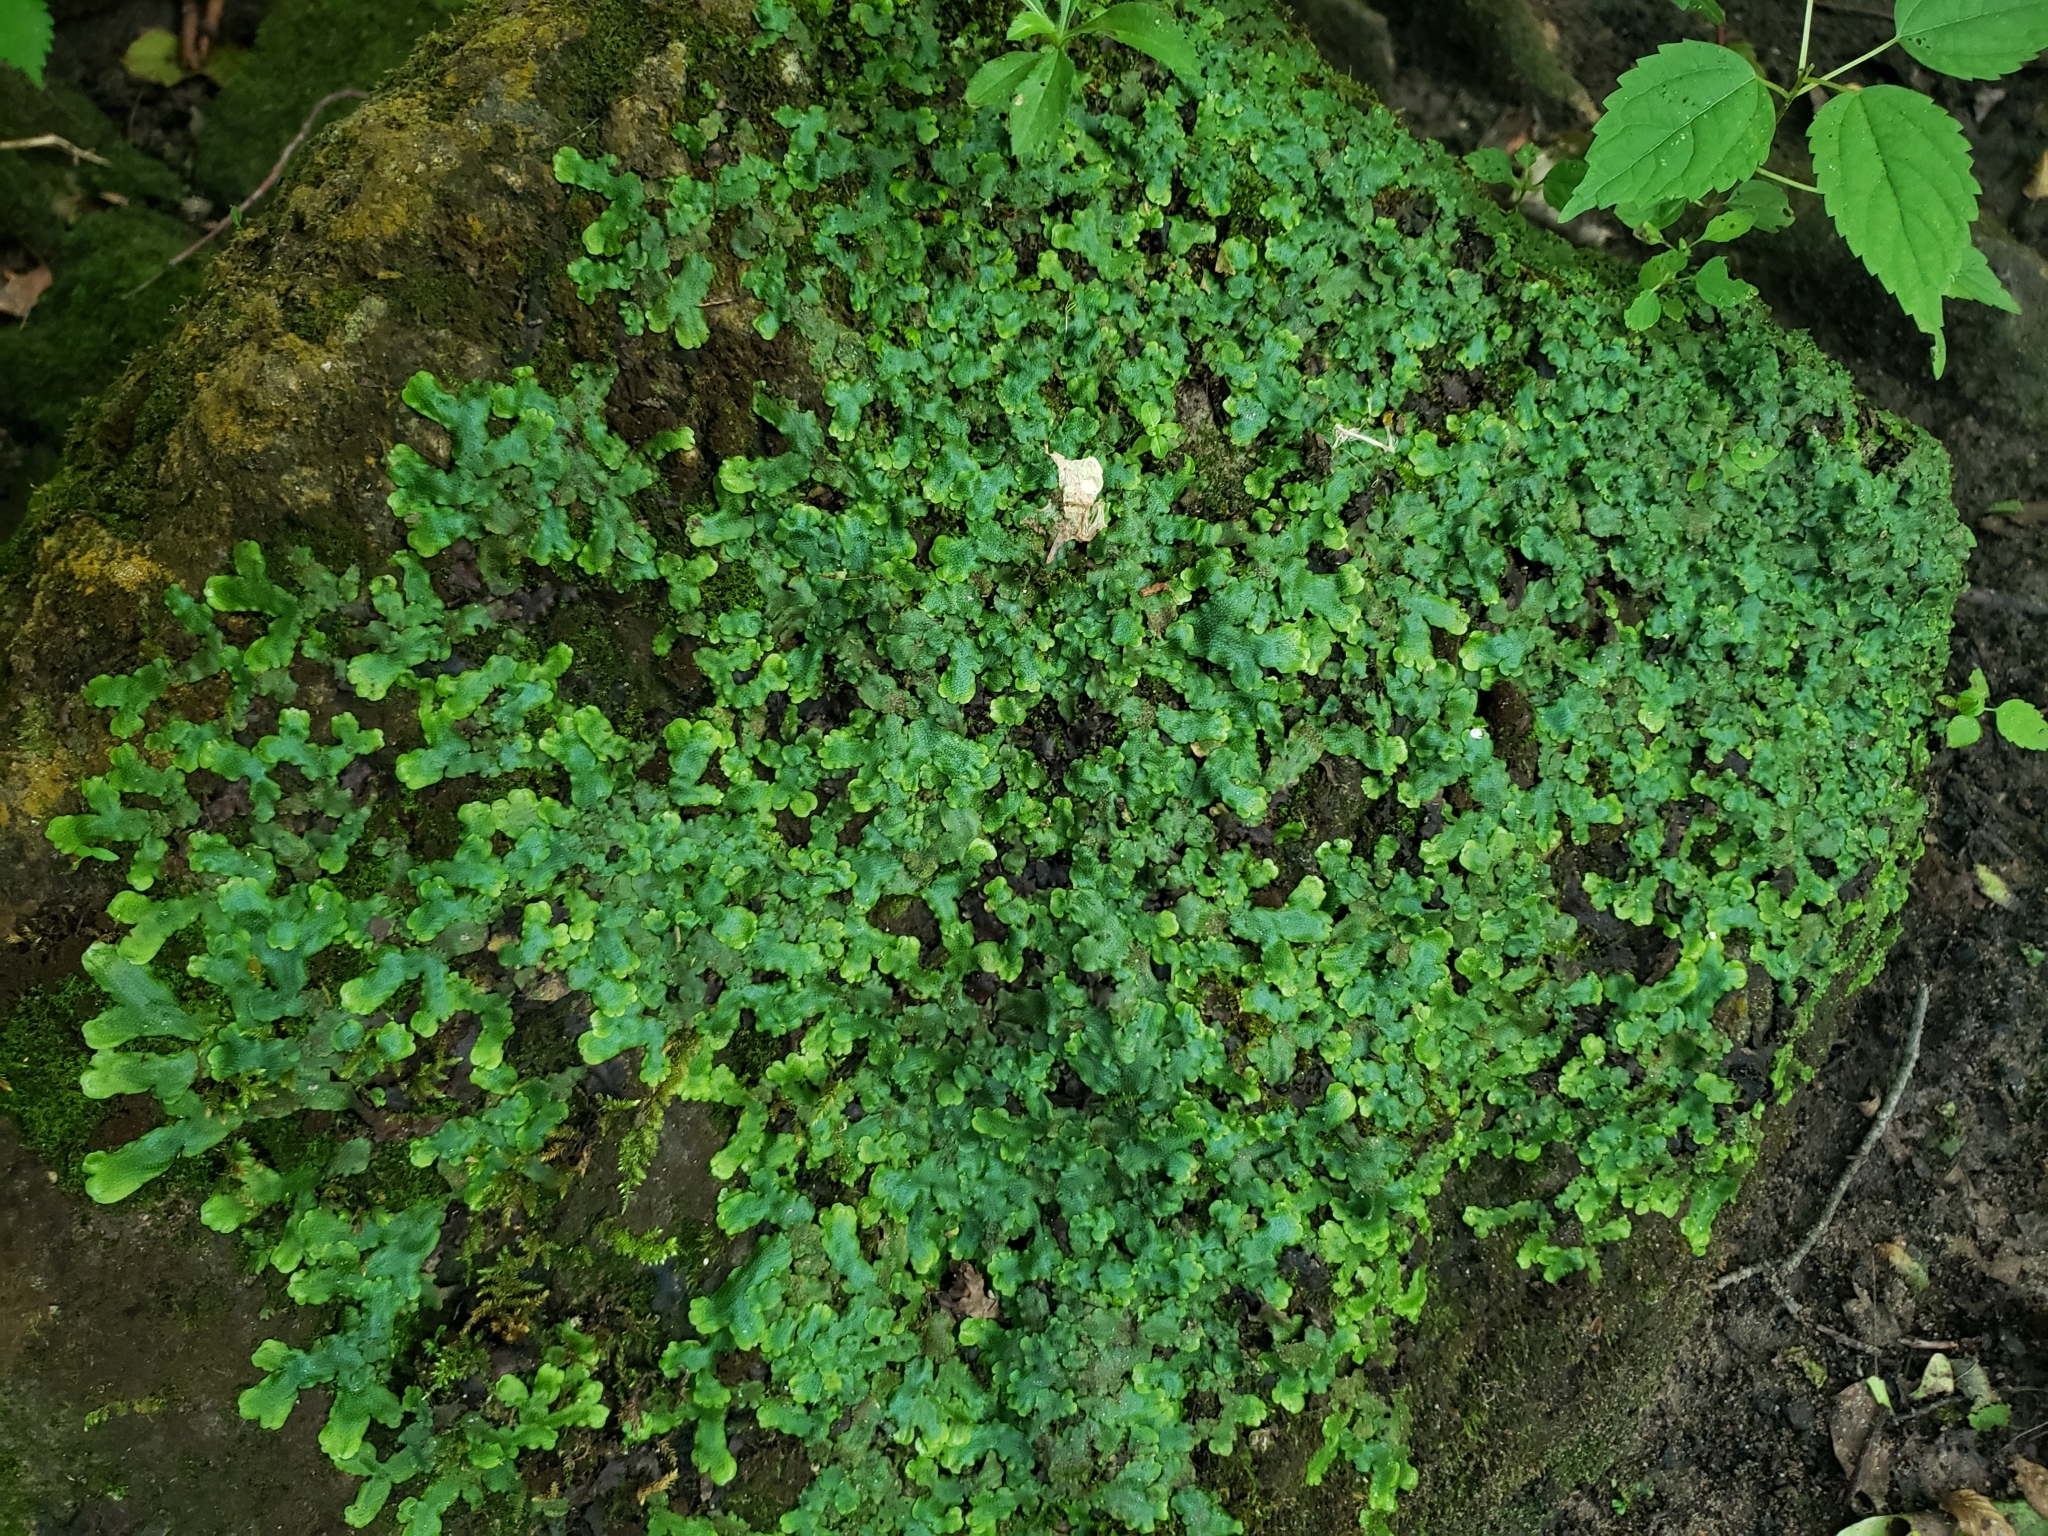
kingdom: Plantae
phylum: Marchantiophyta
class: Marchantiopsida
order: Marchantiales
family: Conocephalaceae
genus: Conocephalum
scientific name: Conocephalum salebrosum
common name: Cat-tongue liverwort
